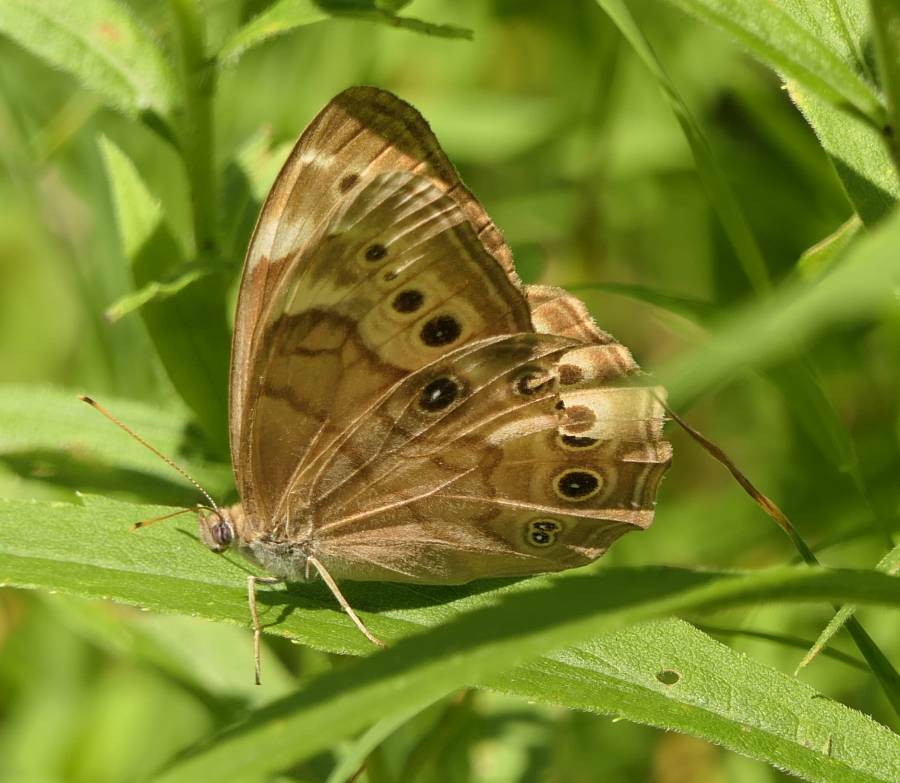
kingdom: Animalia
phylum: Arthropoda
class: Insecta
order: Lepidoptera
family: Nymphalidae
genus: Lethe
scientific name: Lethe anthedon
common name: Northern pearly-eye
